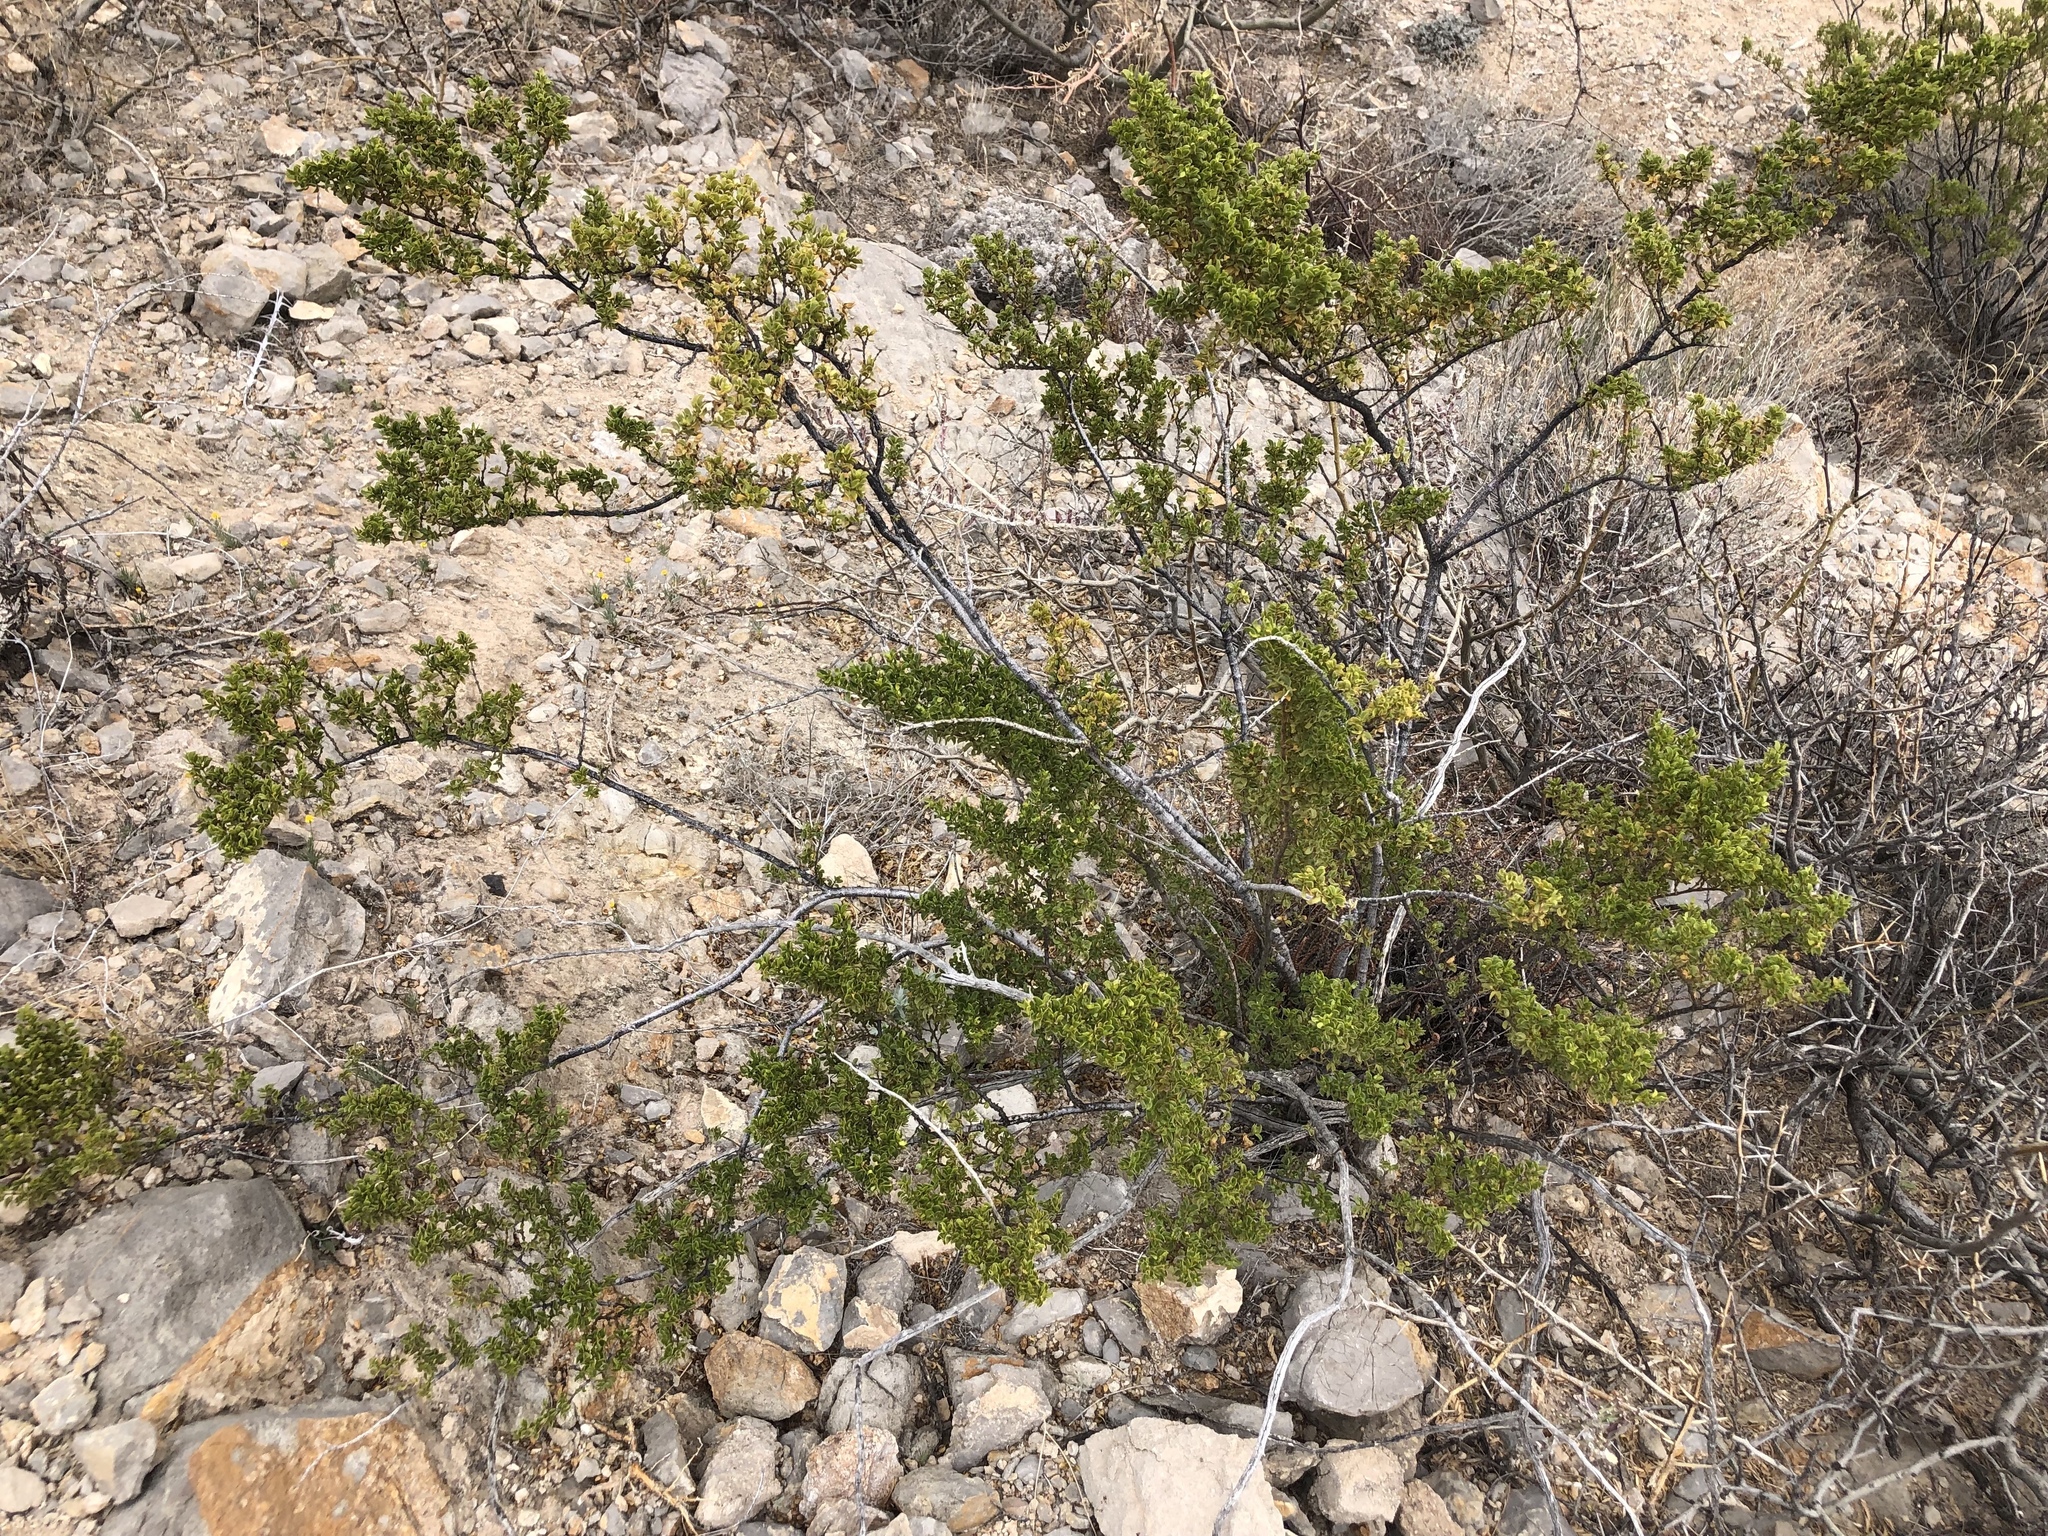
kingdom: Plantae
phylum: Tracheophyta
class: Magnoliopsida
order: Zygophyllales
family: Zygophyllaceae
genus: Larrea
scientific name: Larrea tridentata
